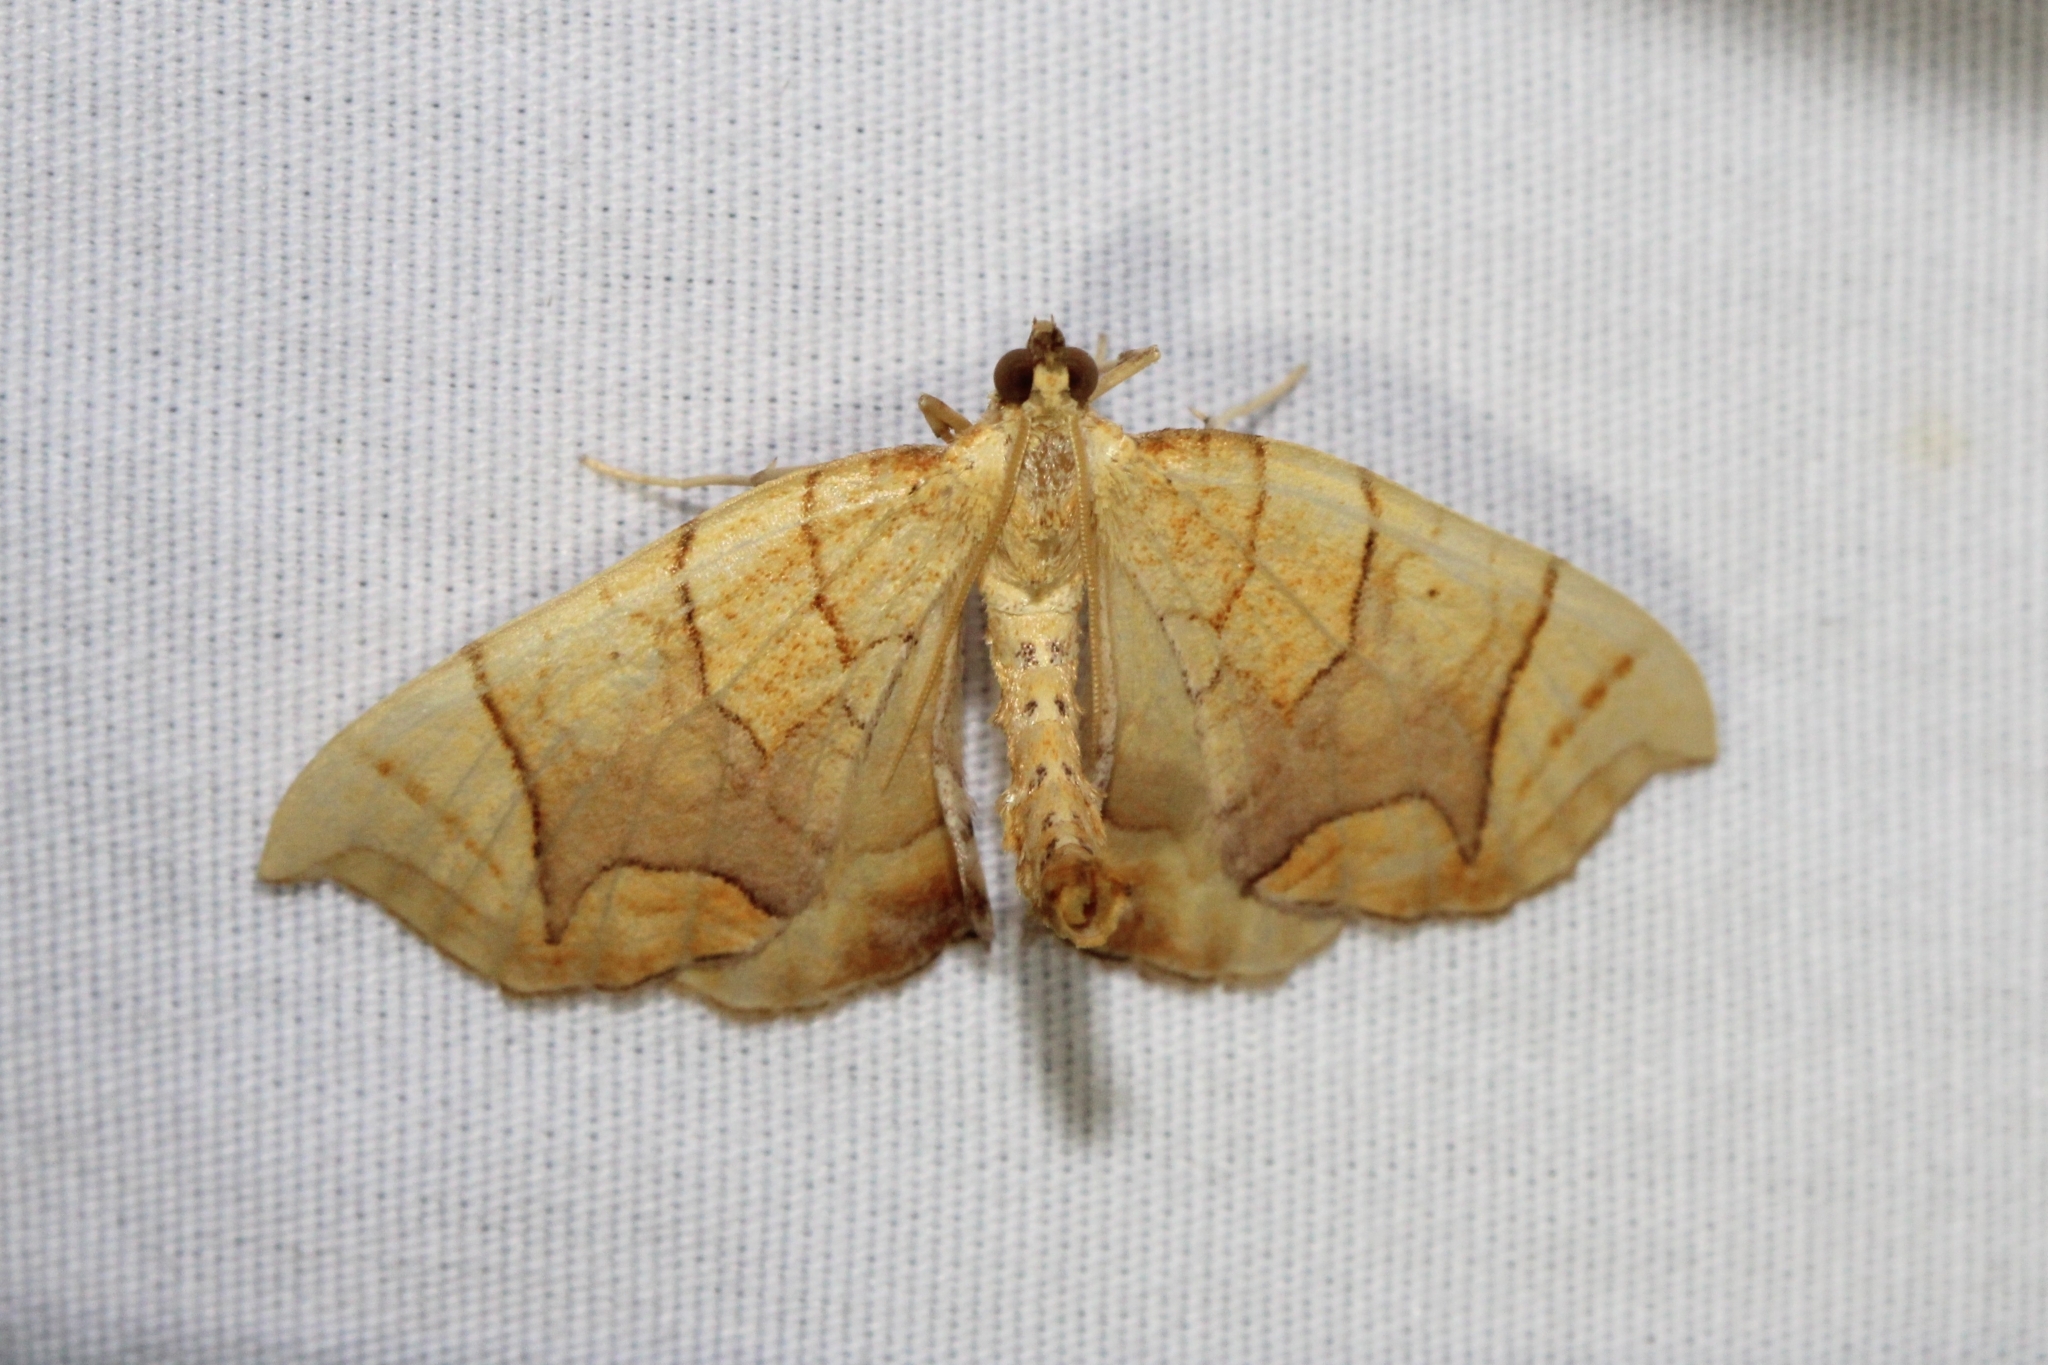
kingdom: Animalia
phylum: Arthropoda
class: Insecta
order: Lepidoptera
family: Geometridae
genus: Eulithis
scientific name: Eulithis
